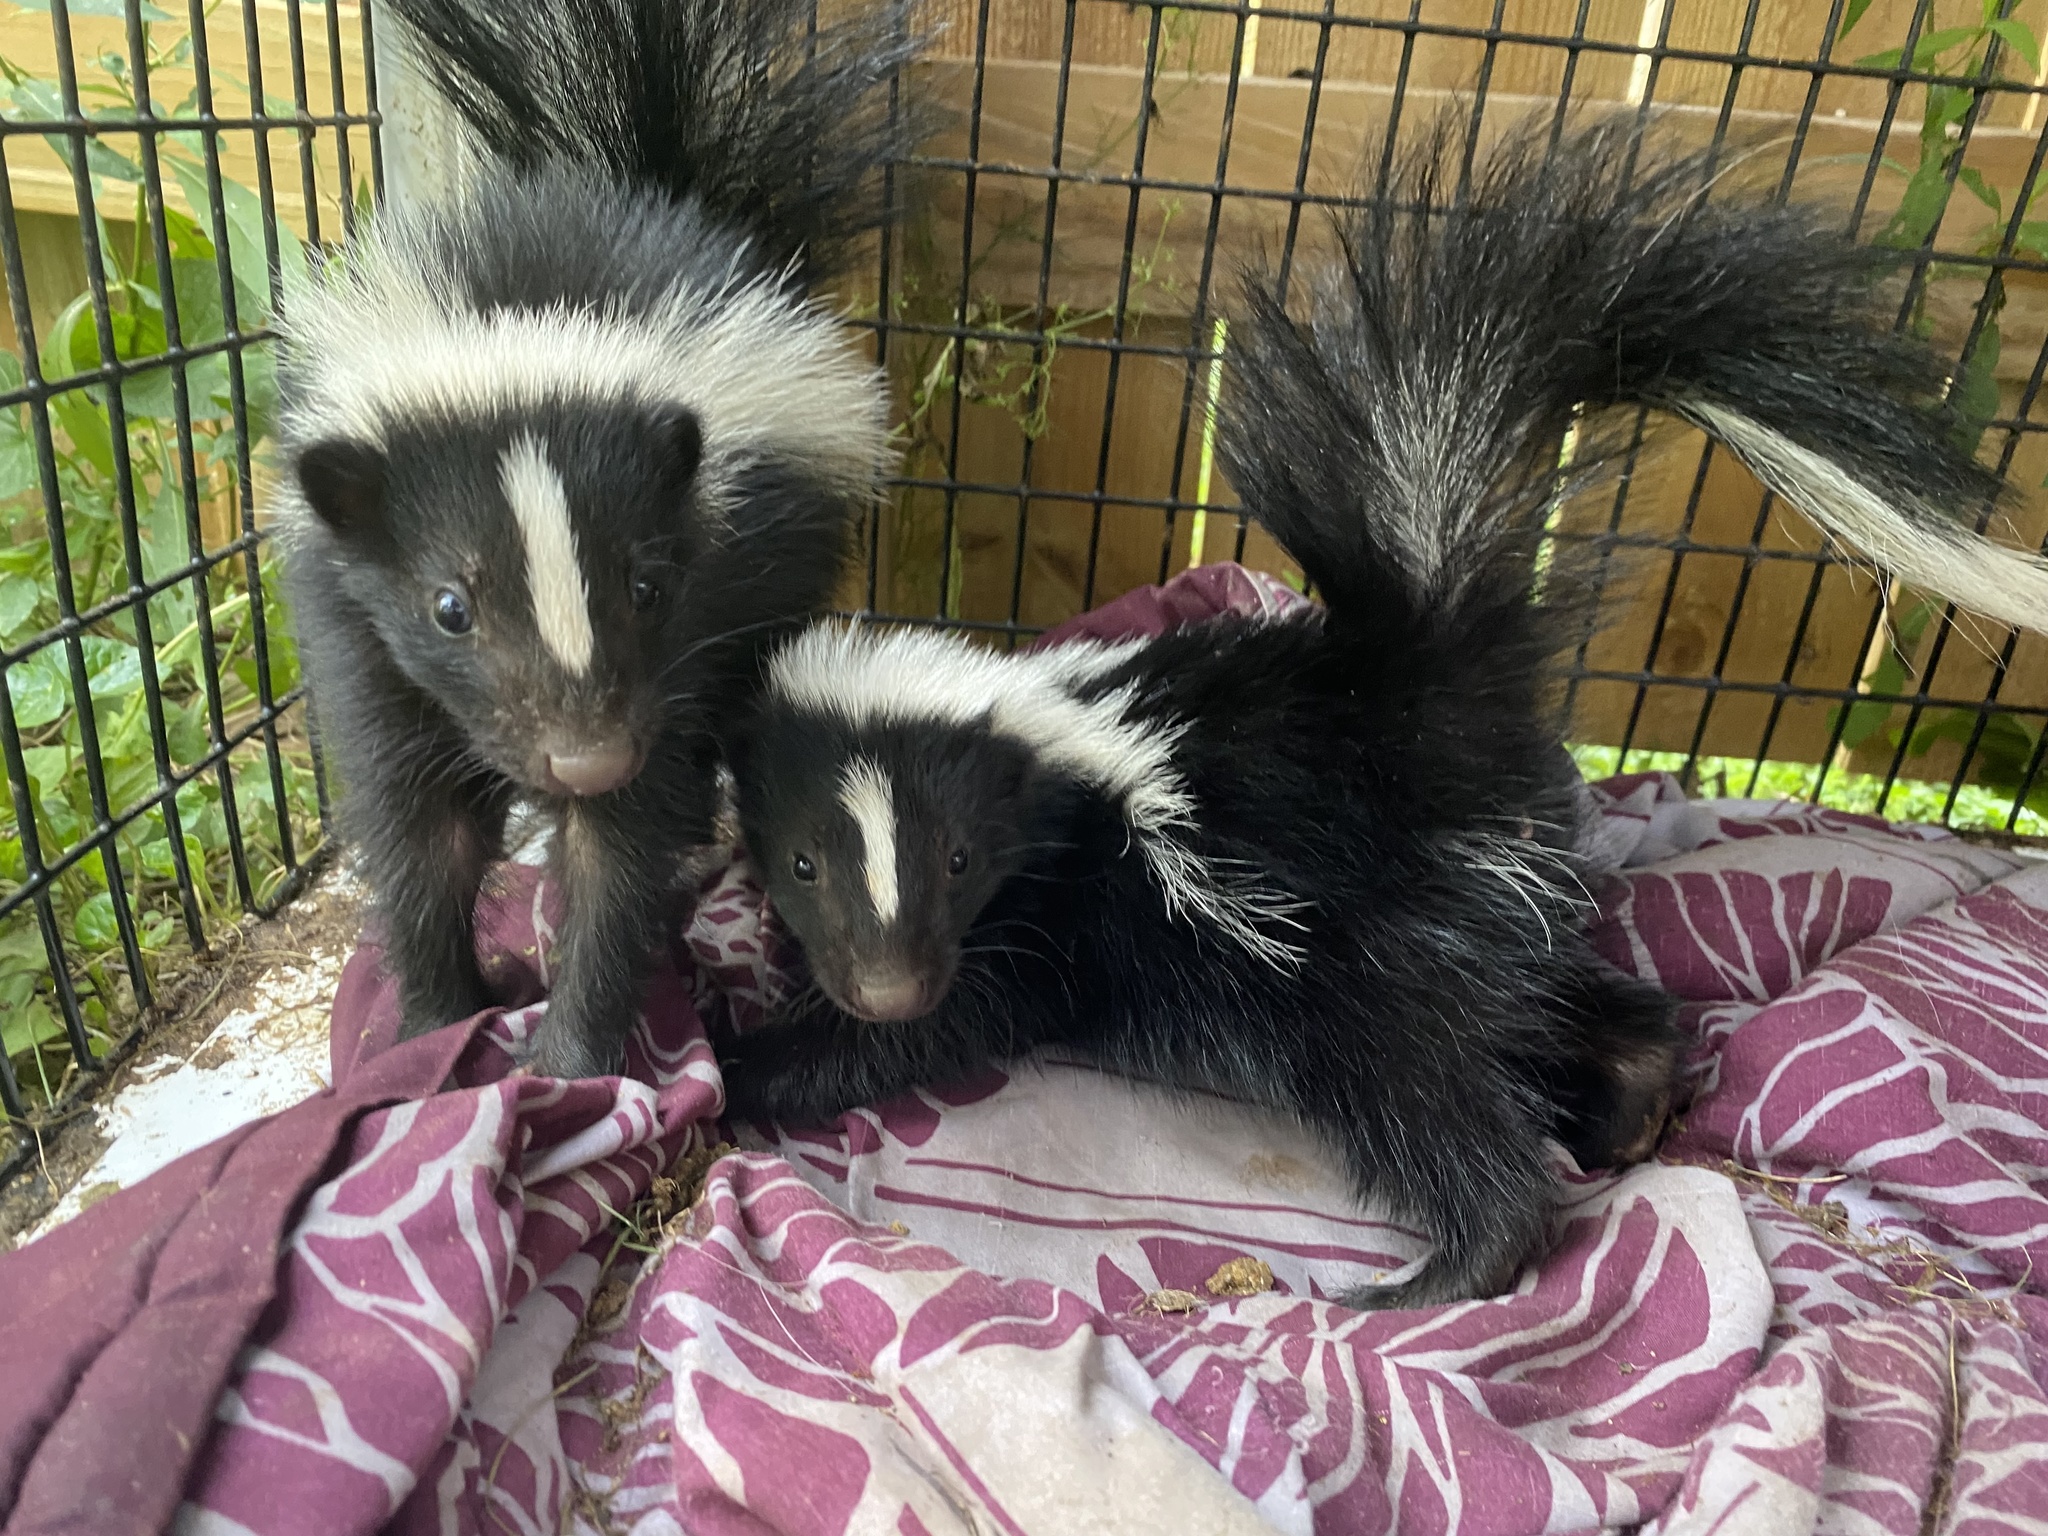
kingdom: Animalia
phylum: Chordata
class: Mammalia
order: Carnivora
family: Mephitidae
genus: Mephitis
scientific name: Mephitis mephitis
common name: Striped skunk
